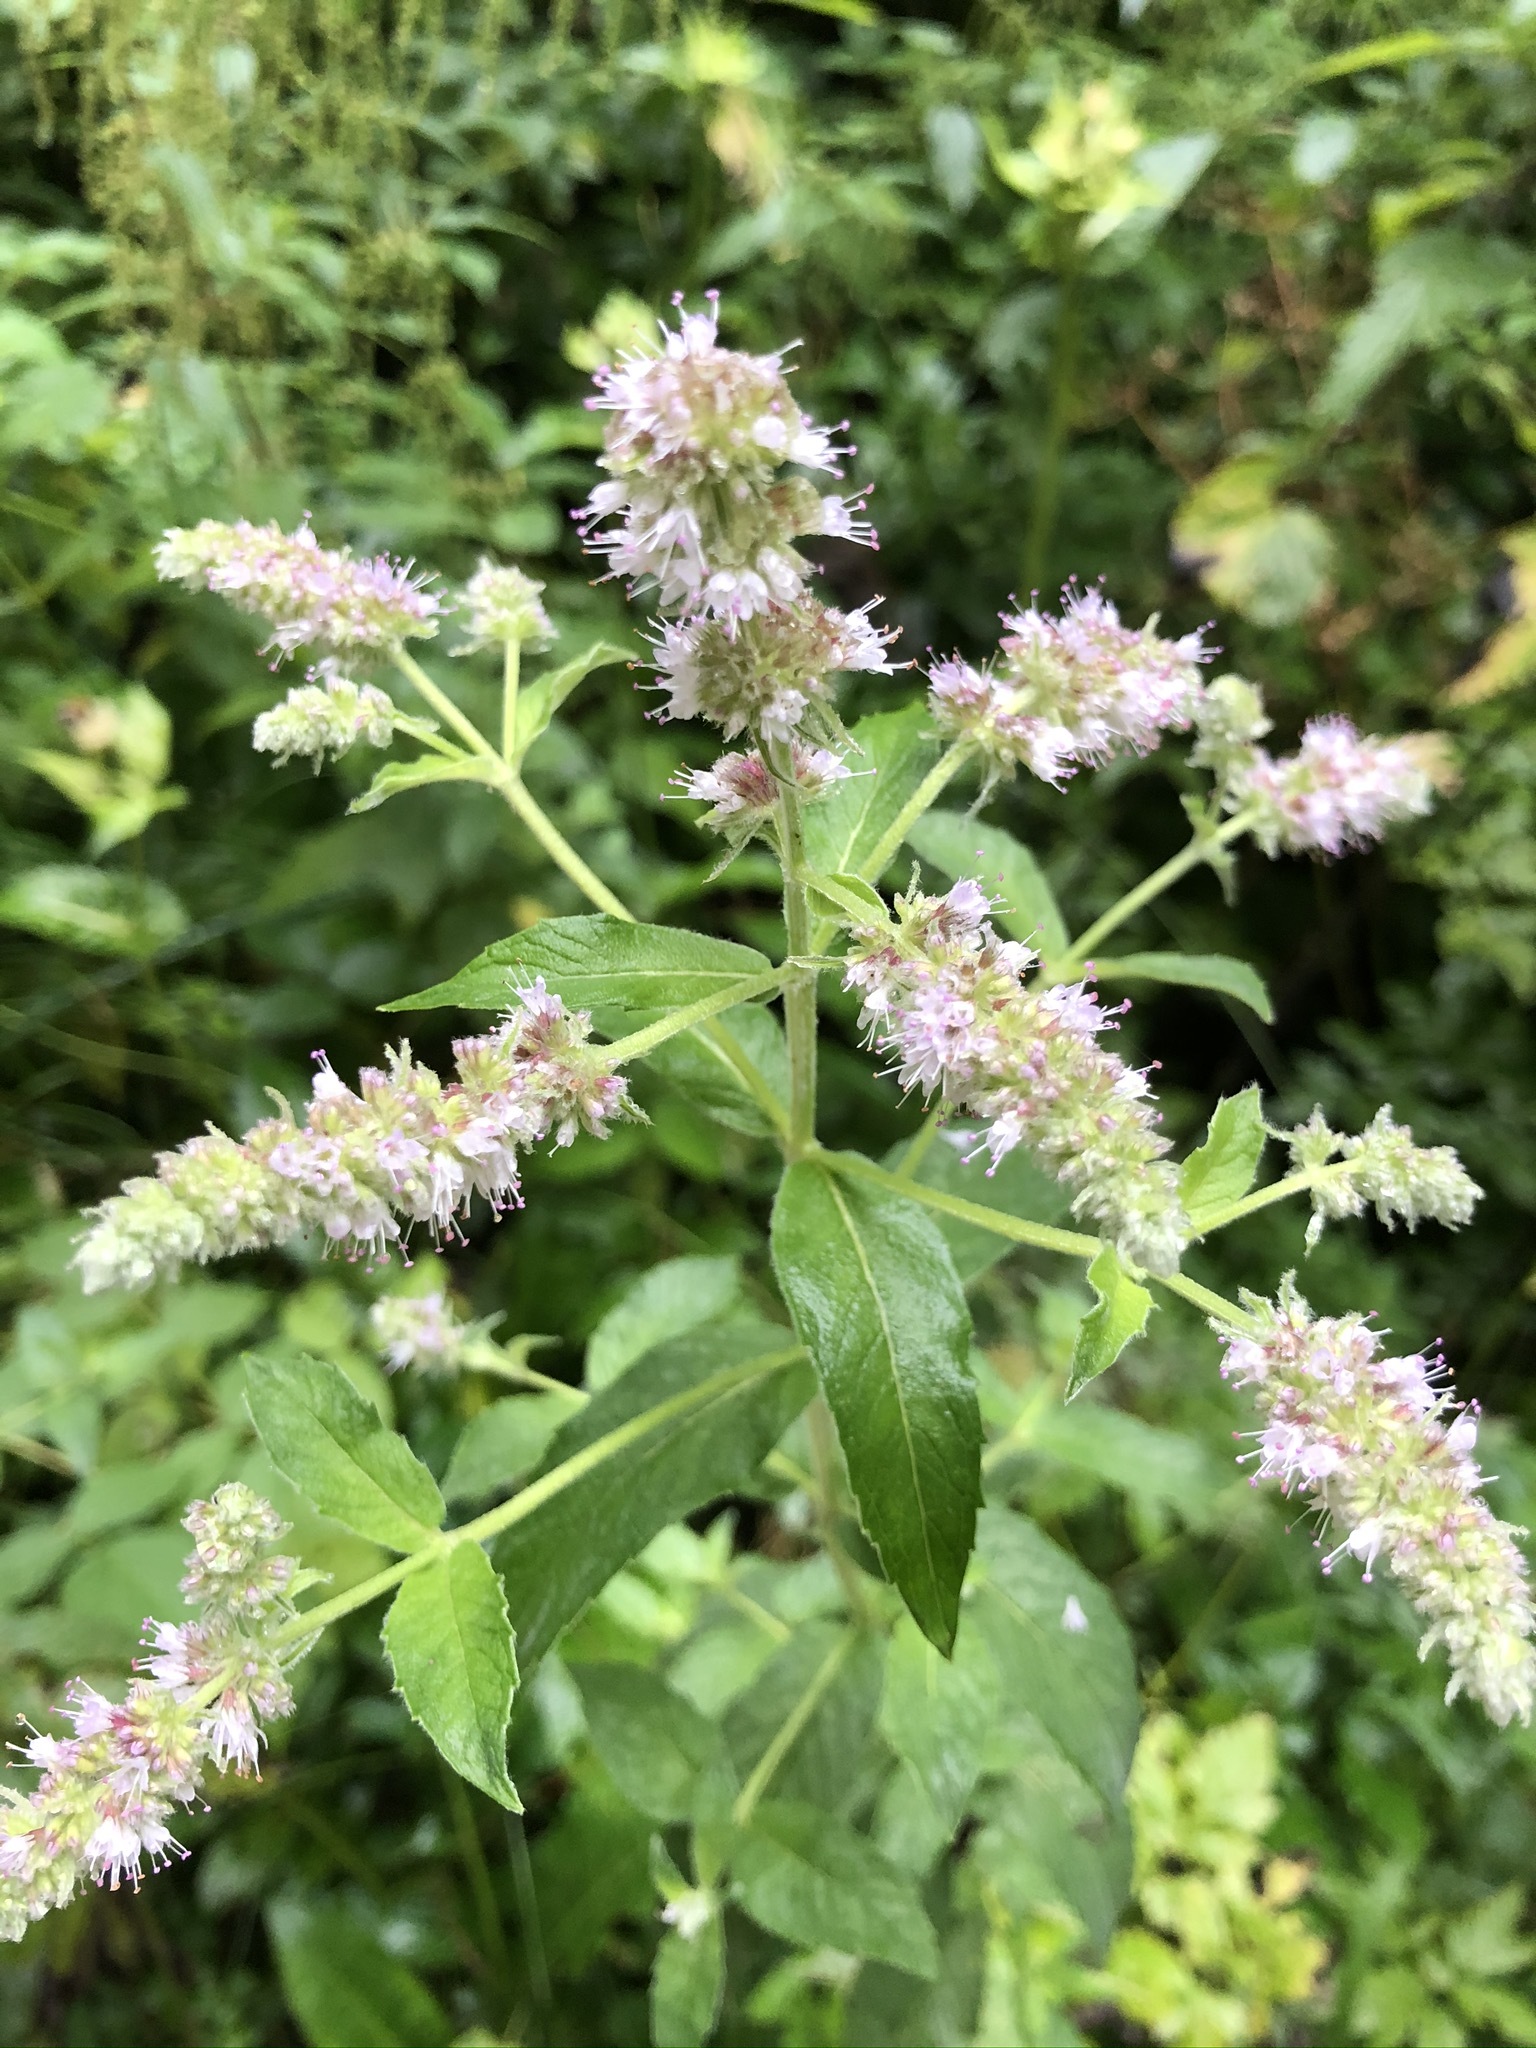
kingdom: Plantae
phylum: Tracheophyta
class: Magnoliopsida
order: Lamiales
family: Lamiaceae
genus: Mentha
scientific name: Mentha longifolia
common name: Horse mint
